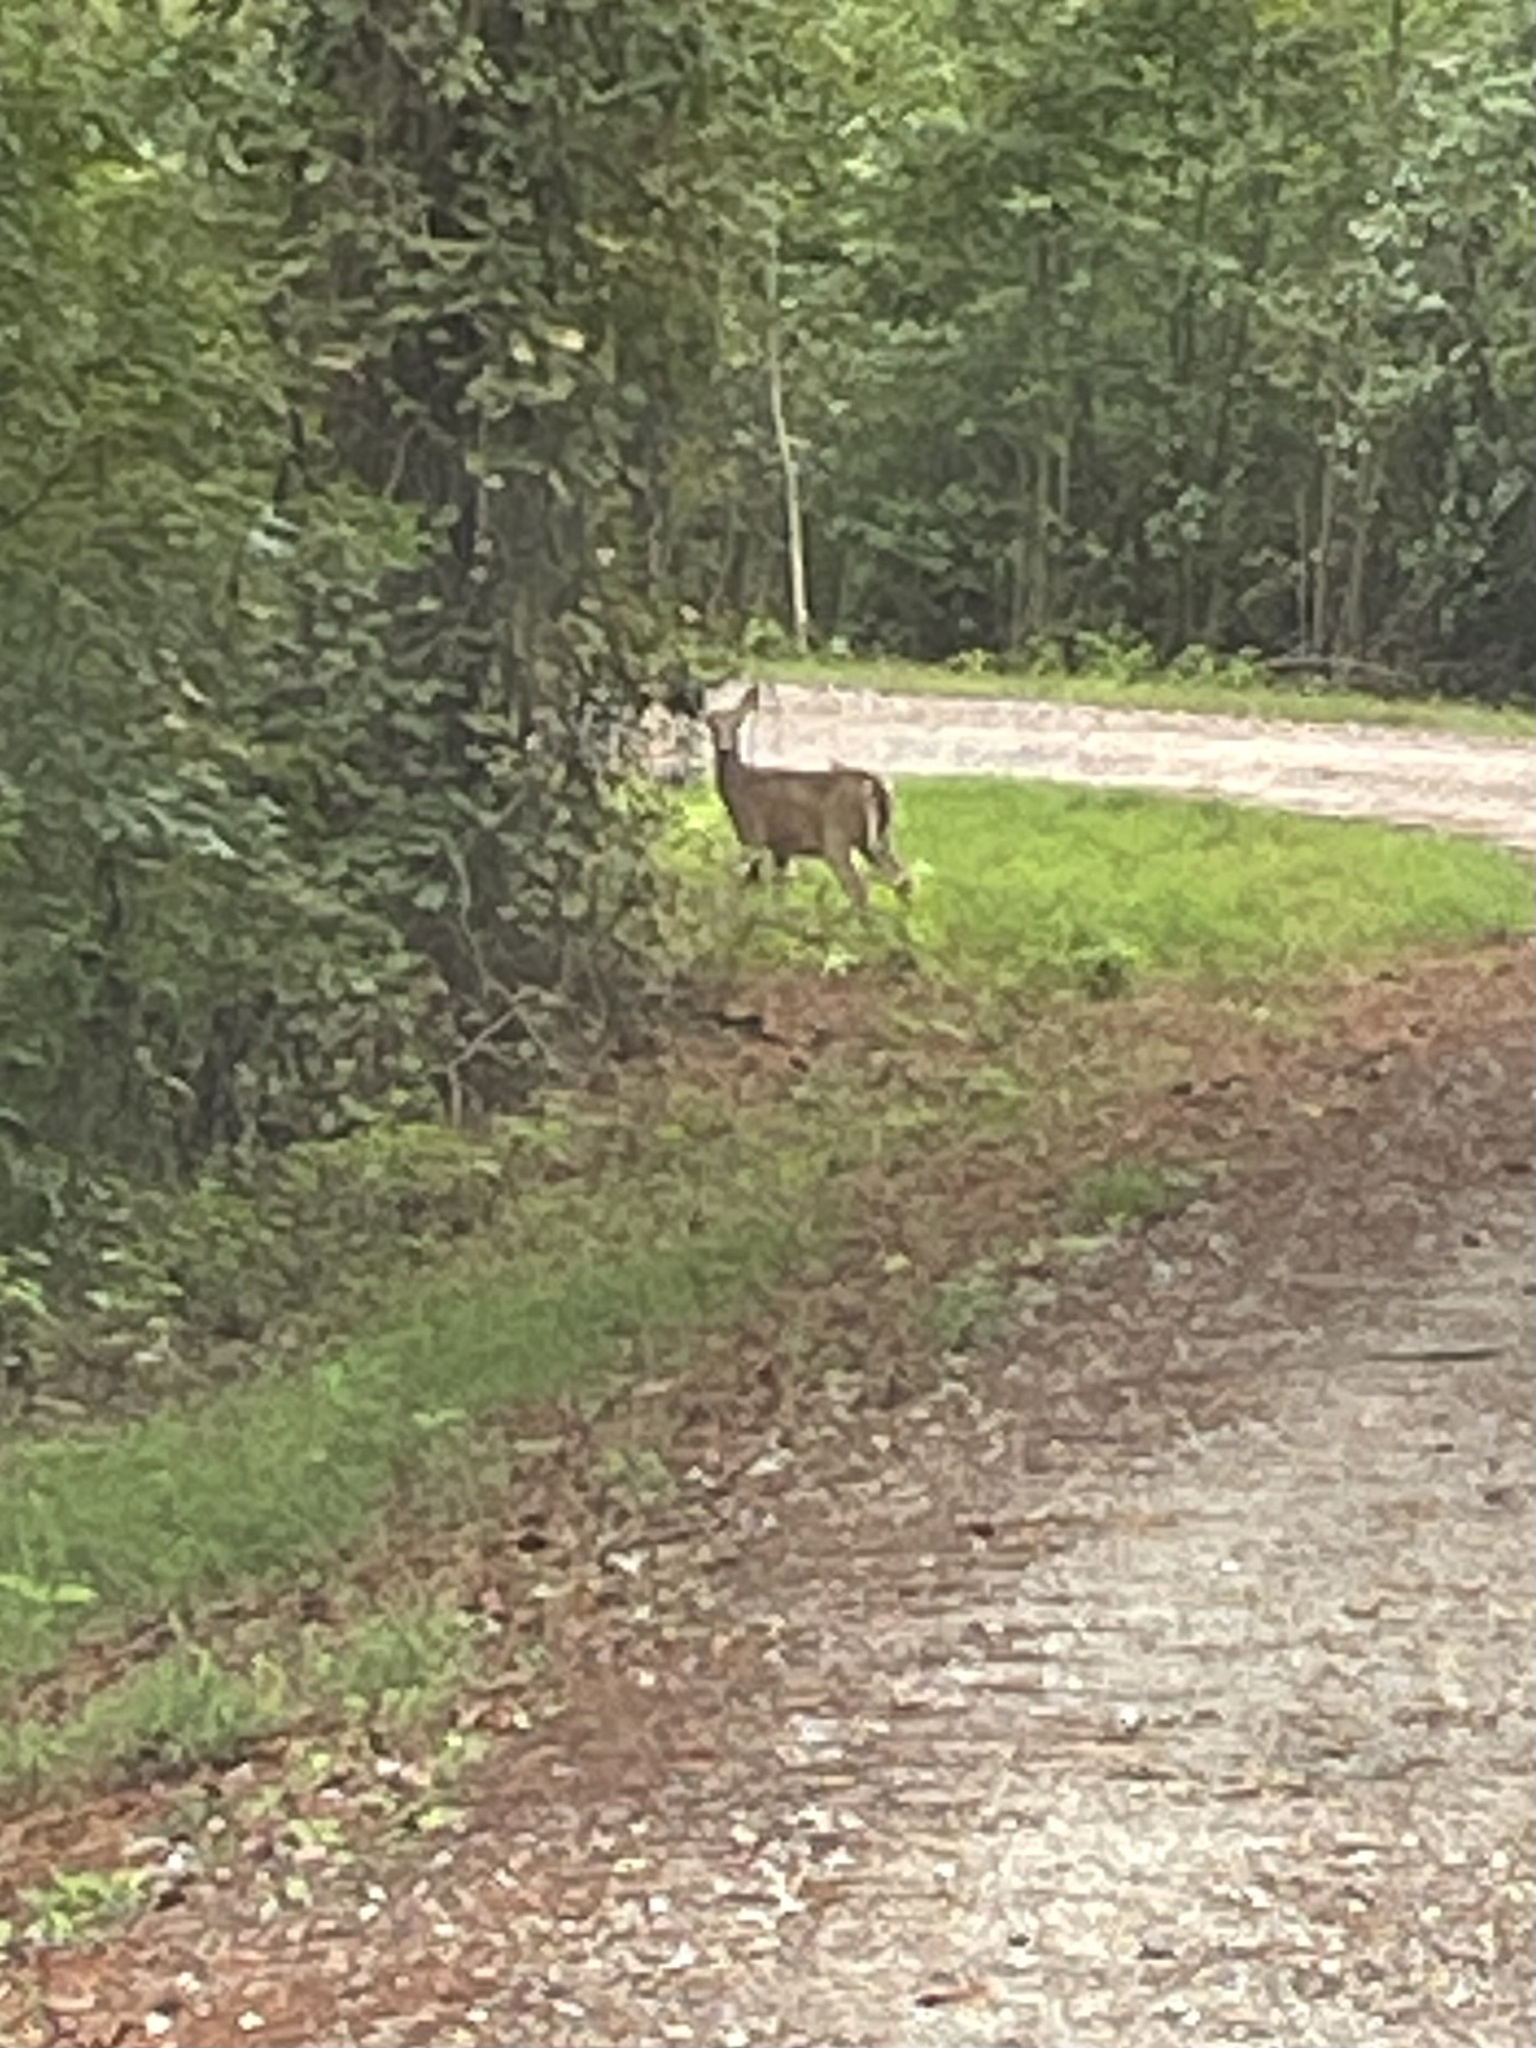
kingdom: Animalia
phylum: Chordata
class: Mammalia
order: Artiodactyla
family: Cervidae
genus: Odocoileus
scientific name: Odocoileus virginianus
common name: White-tailed deer
